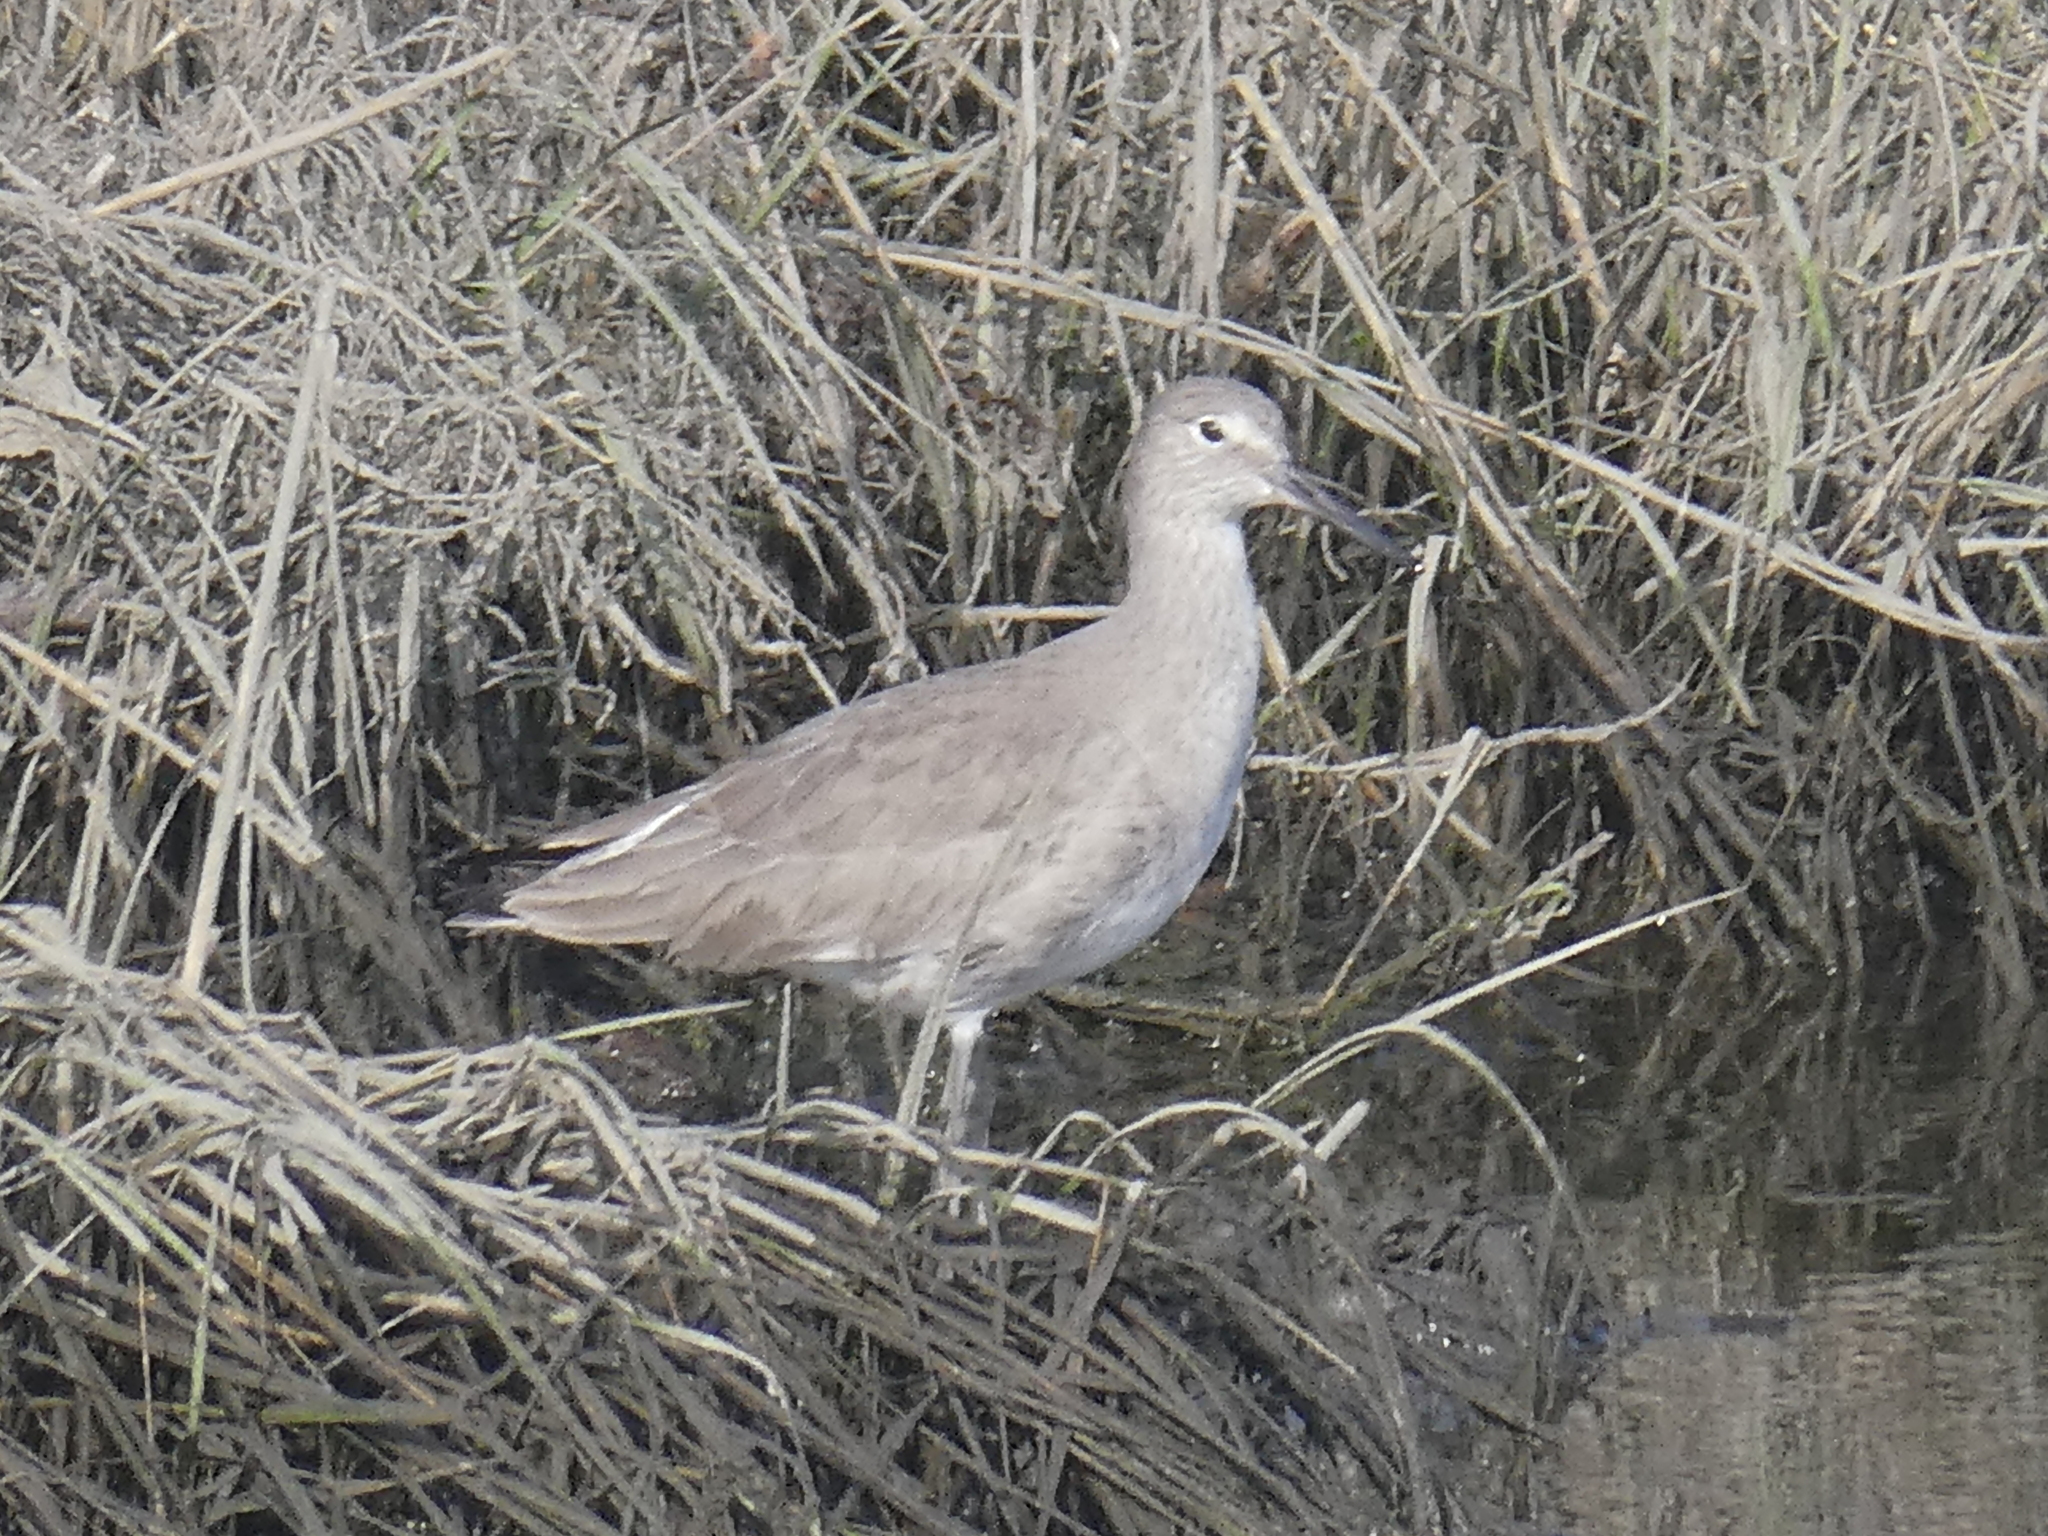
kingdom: Animalia
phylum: Chordata
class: Aves
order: Charadriiformes
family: Scolopacidae
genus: Tringa
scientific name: Tringa semipalmata
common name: Willet
